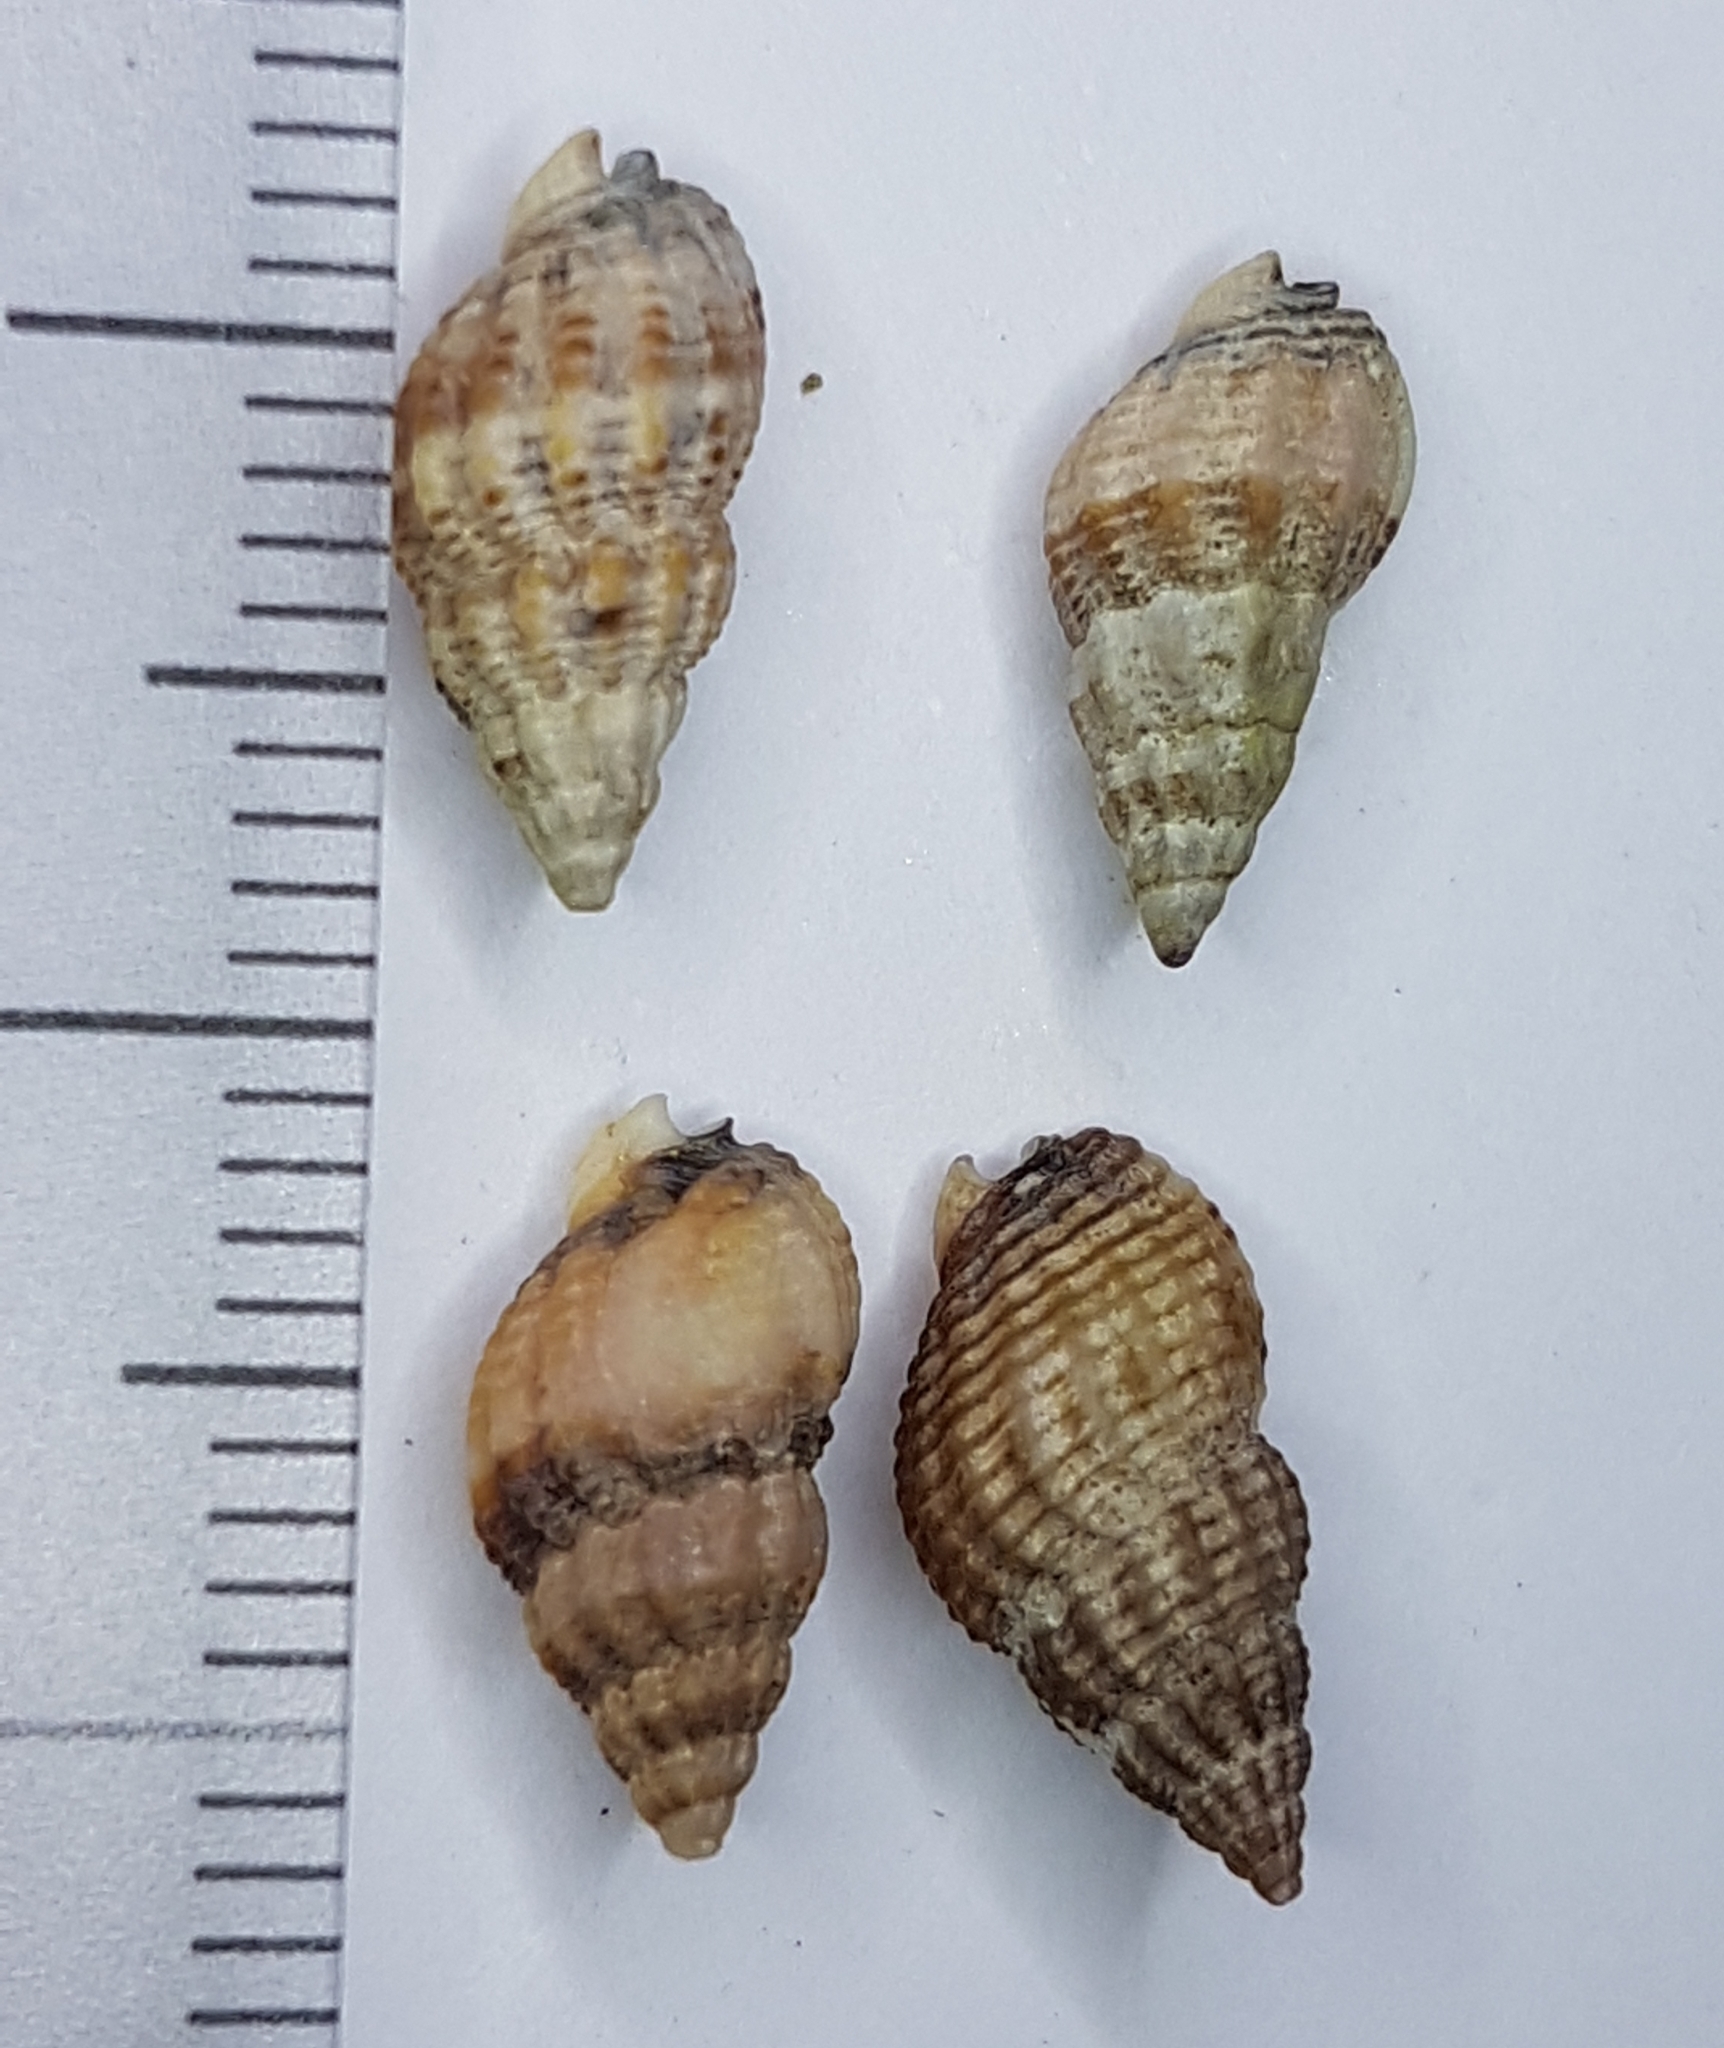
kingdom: Animalia
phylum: Mollusca
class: Gastropoda
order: Neogastropoda
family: Nassariidae
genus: Tritia
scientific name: Tritia incrassata
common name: Thick-lipped dog whelk
